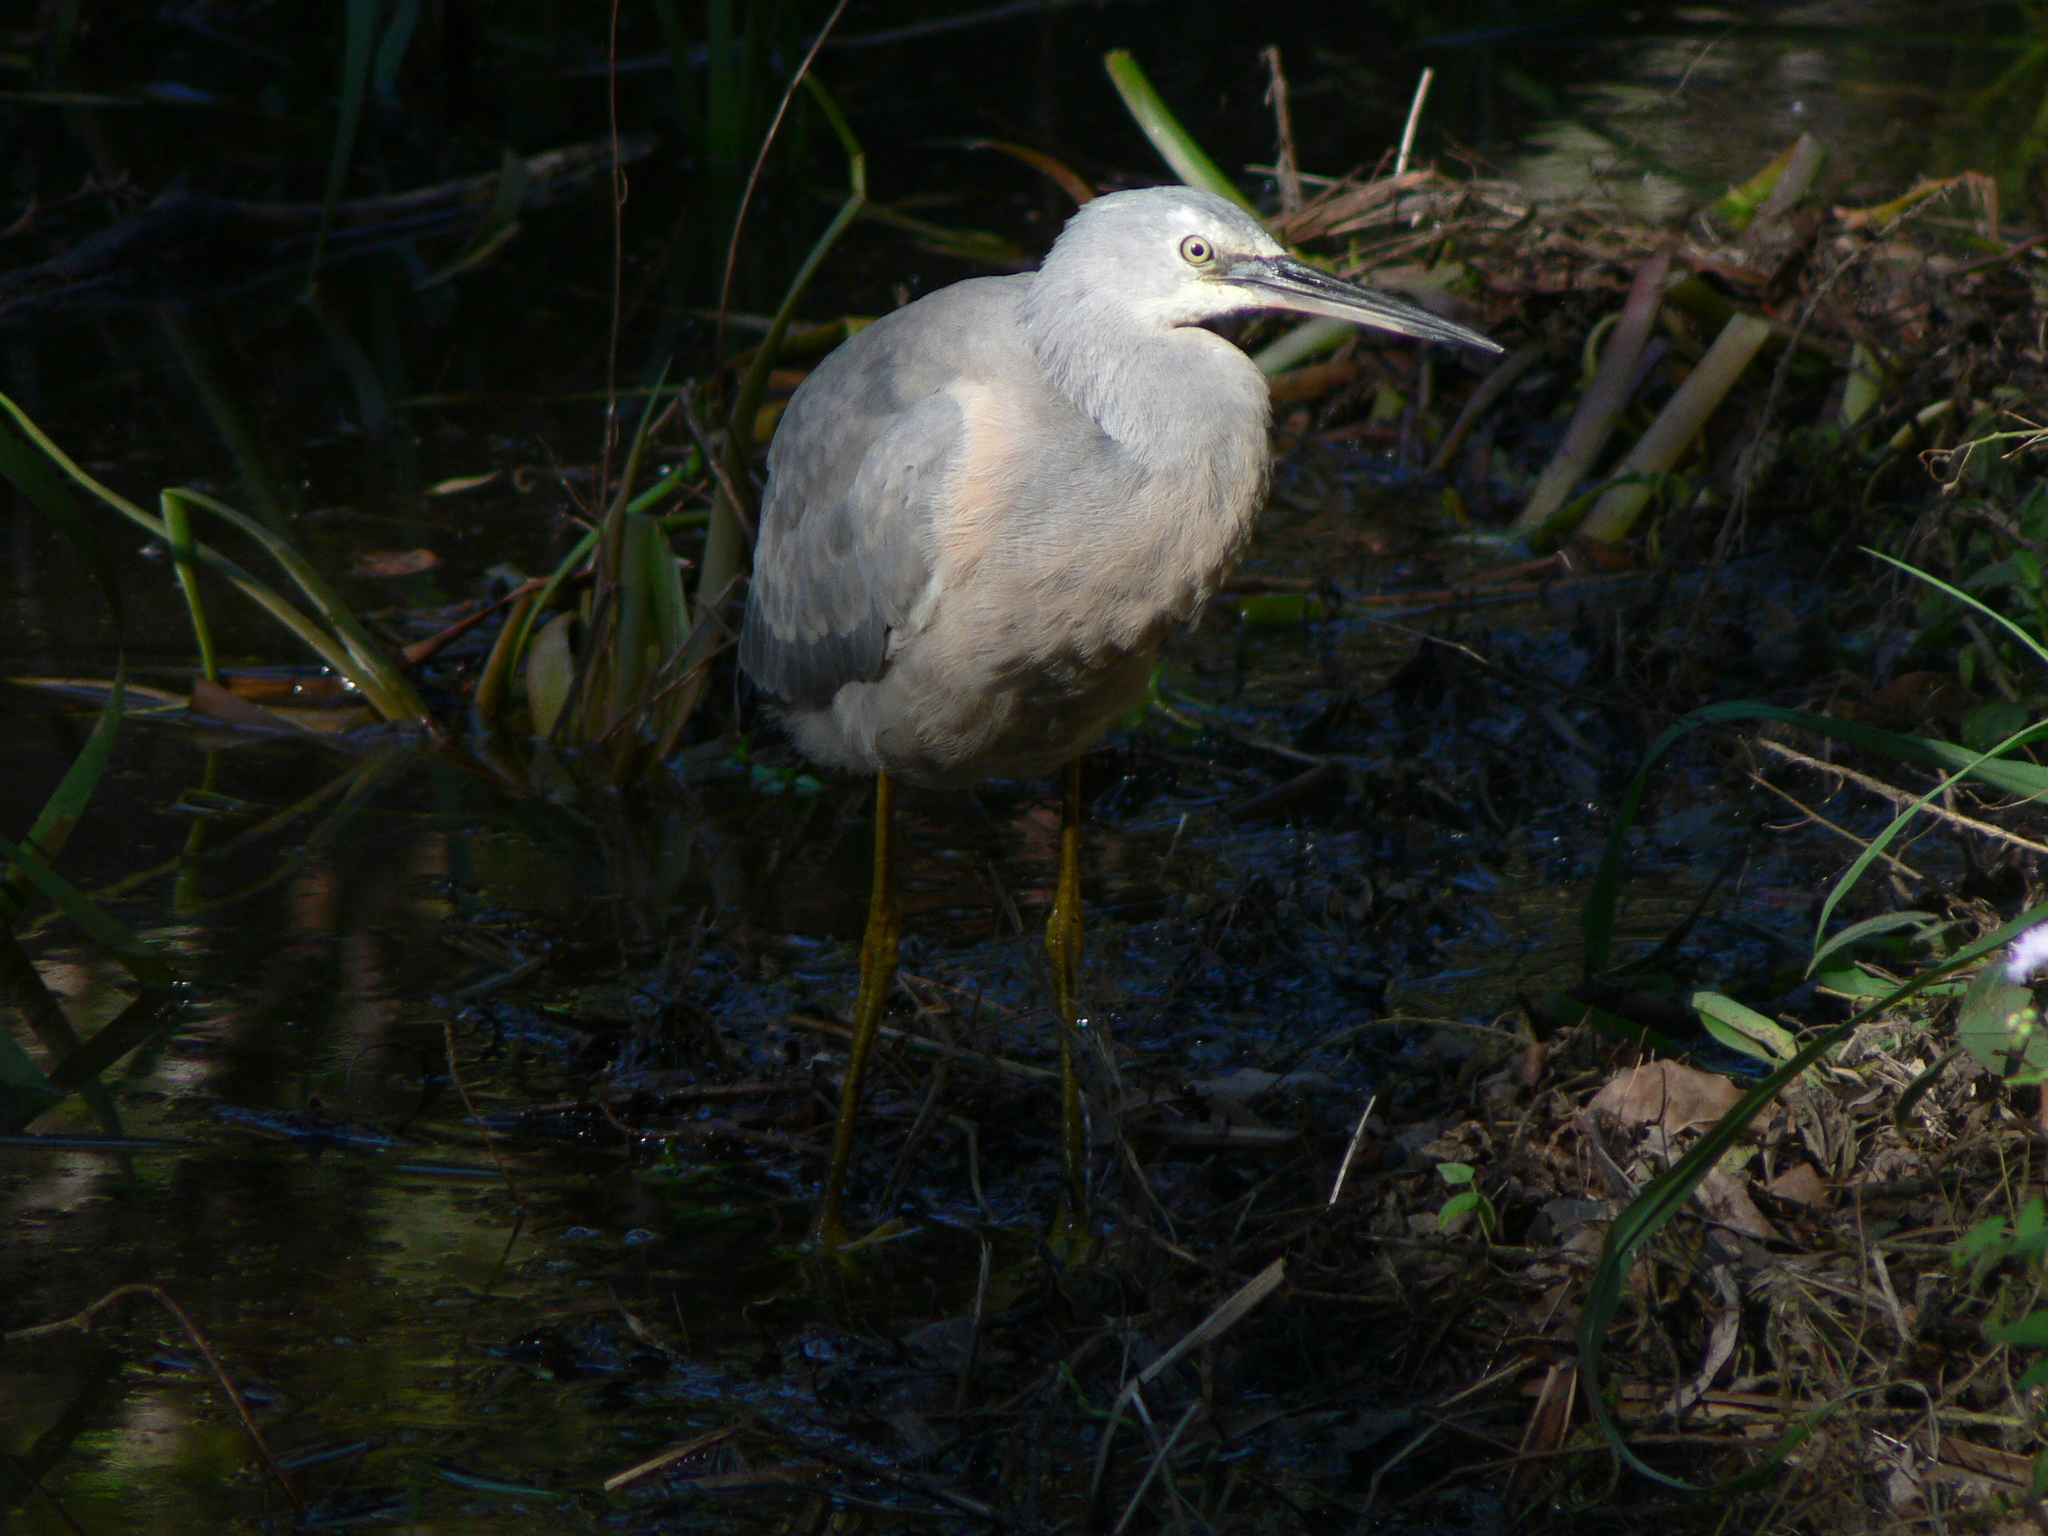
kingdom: Animalia
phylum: Chordata
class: Aves
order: Pelecaniformes
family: Ardeidae
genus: Egretta
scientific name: Egretta novaehollandiae
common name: White-faced heron
